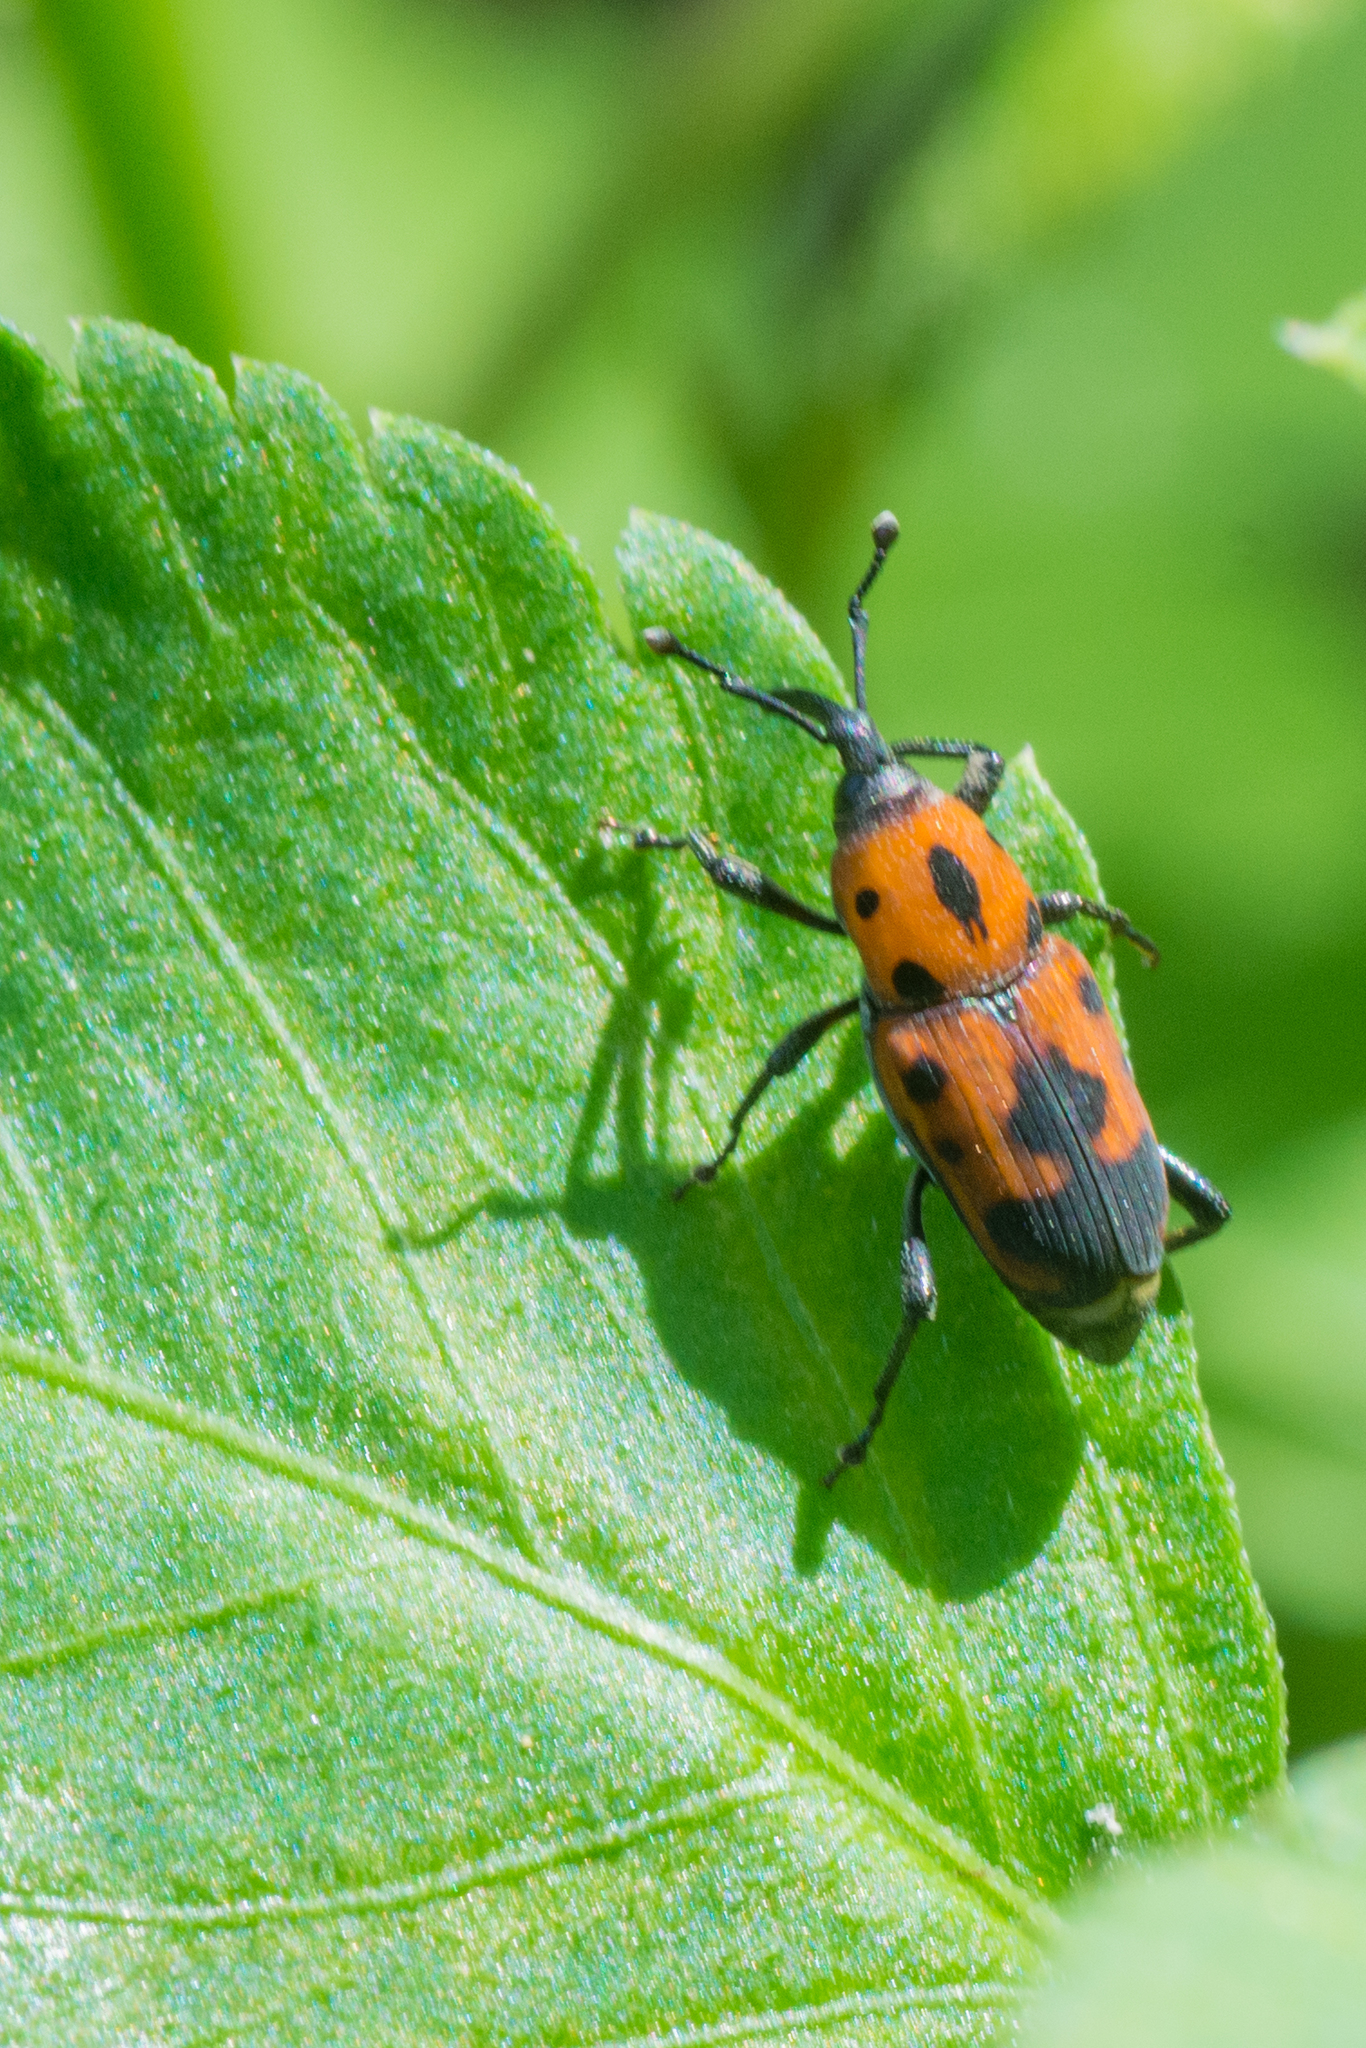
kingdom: Animalia
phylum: Arthropoda
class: Insecta
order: Coleoptera
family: Dryophthoridae
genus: Rhodobaenus
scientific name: Rhodobaenus quinquepunctatus
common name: Cocklebur weevil
